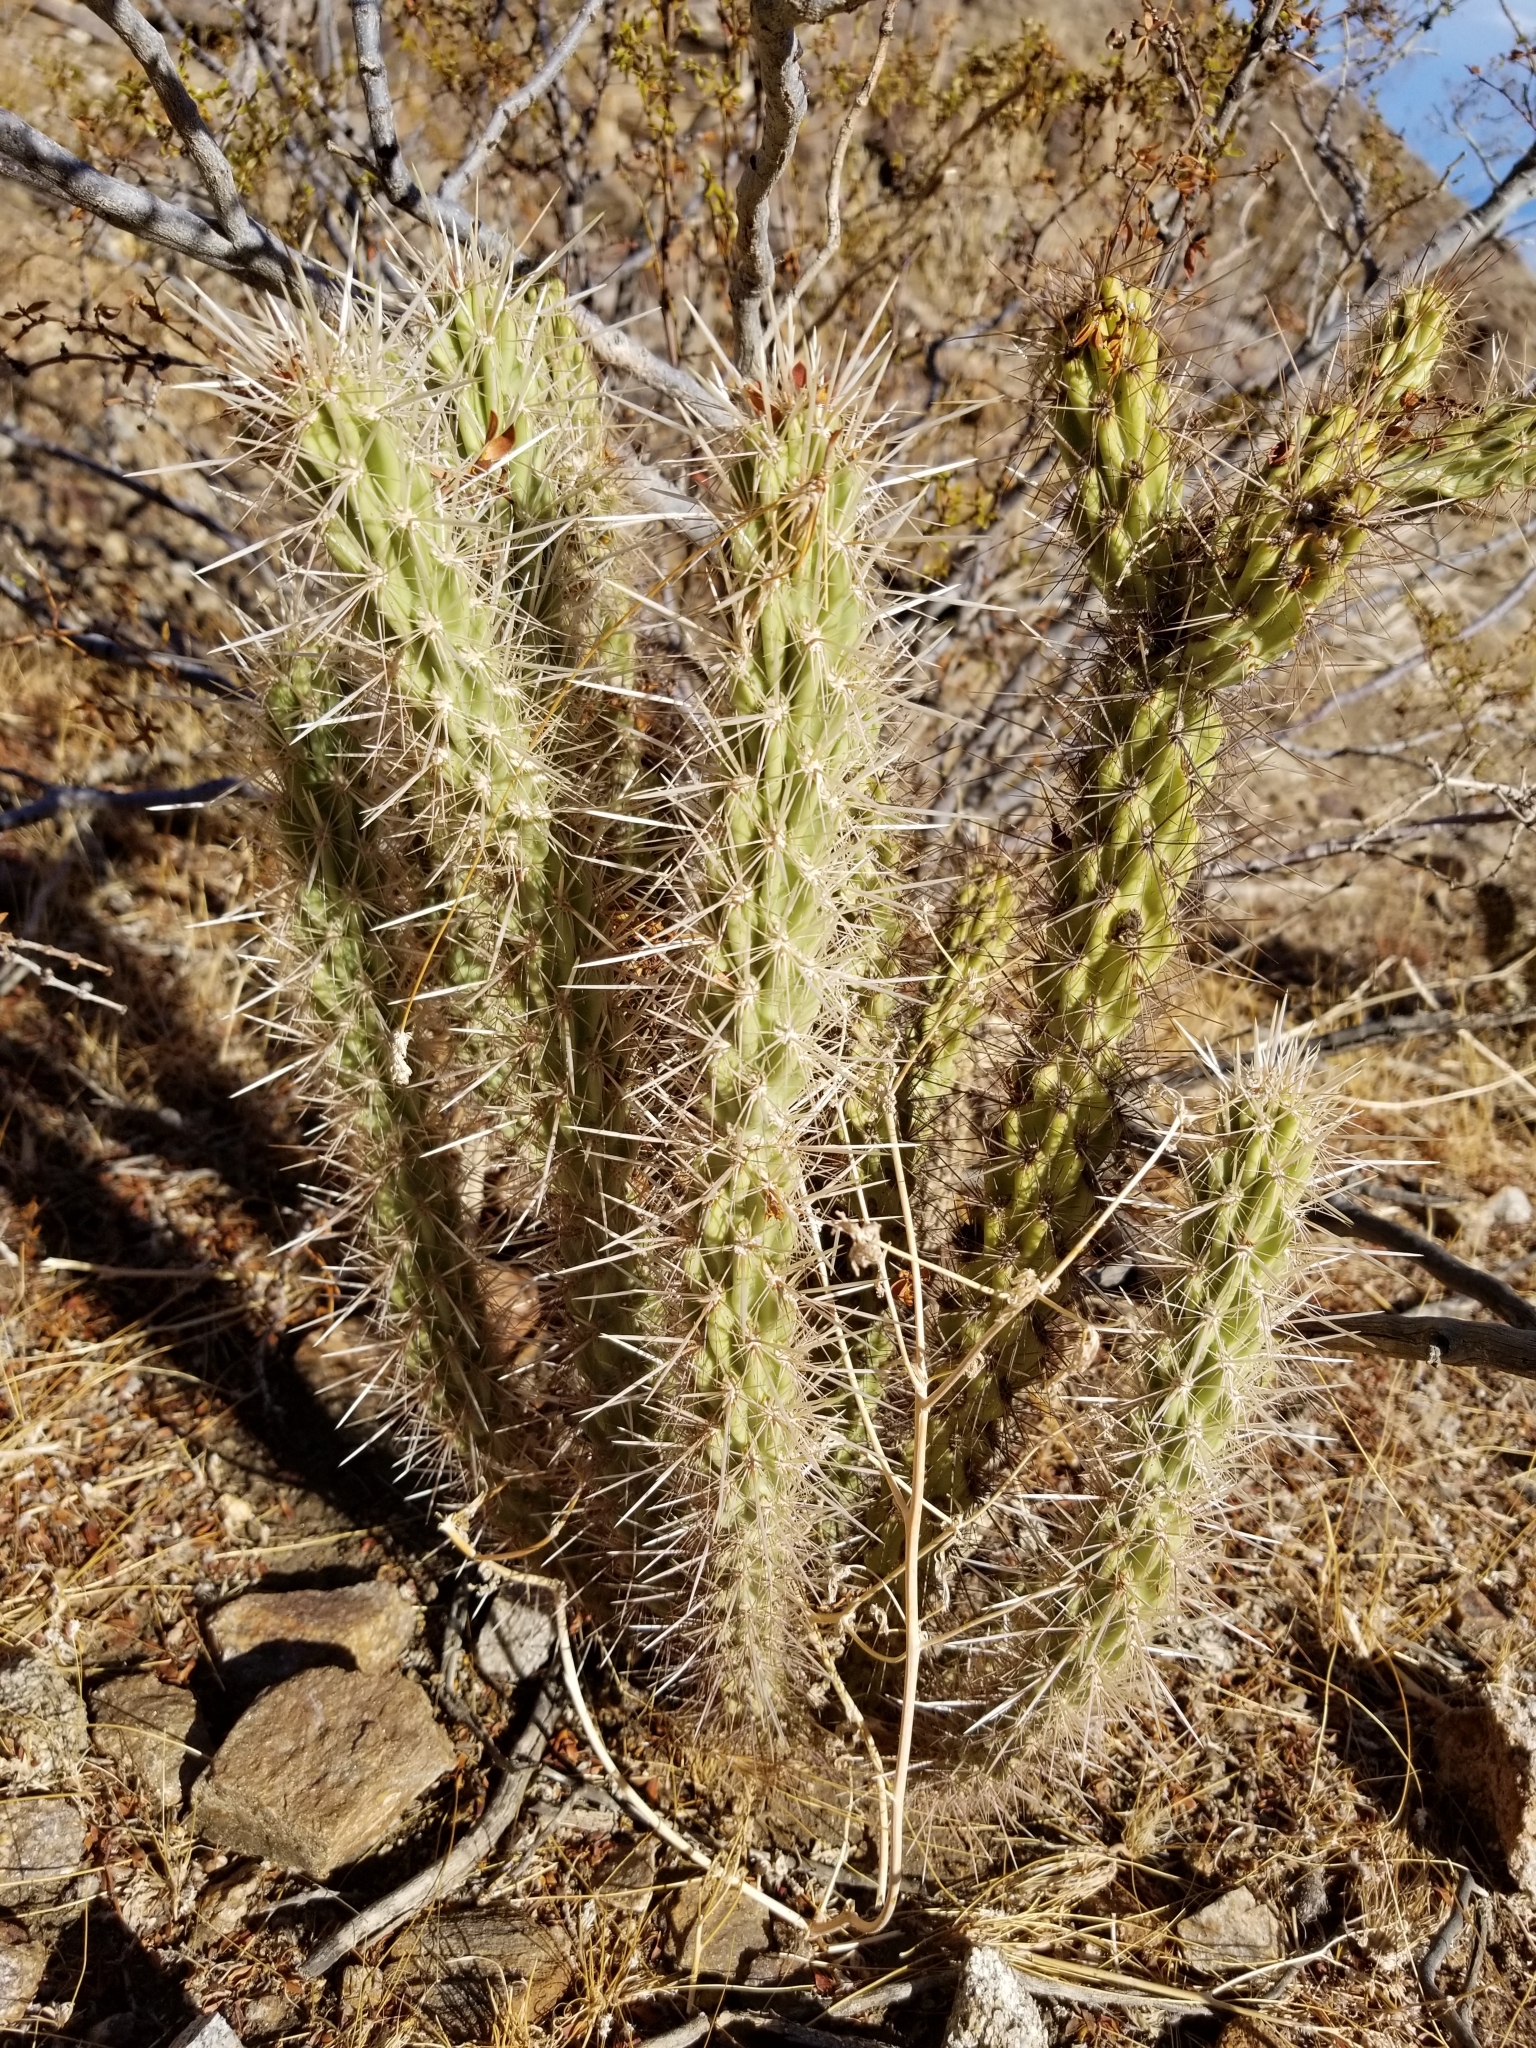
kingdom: Plantae
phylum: Tracheophyta
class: Magnoliopsida
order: Caryophyllales
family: Cactaceae
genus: Cylindropuntia
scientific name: Cylindropuntia ganderi
